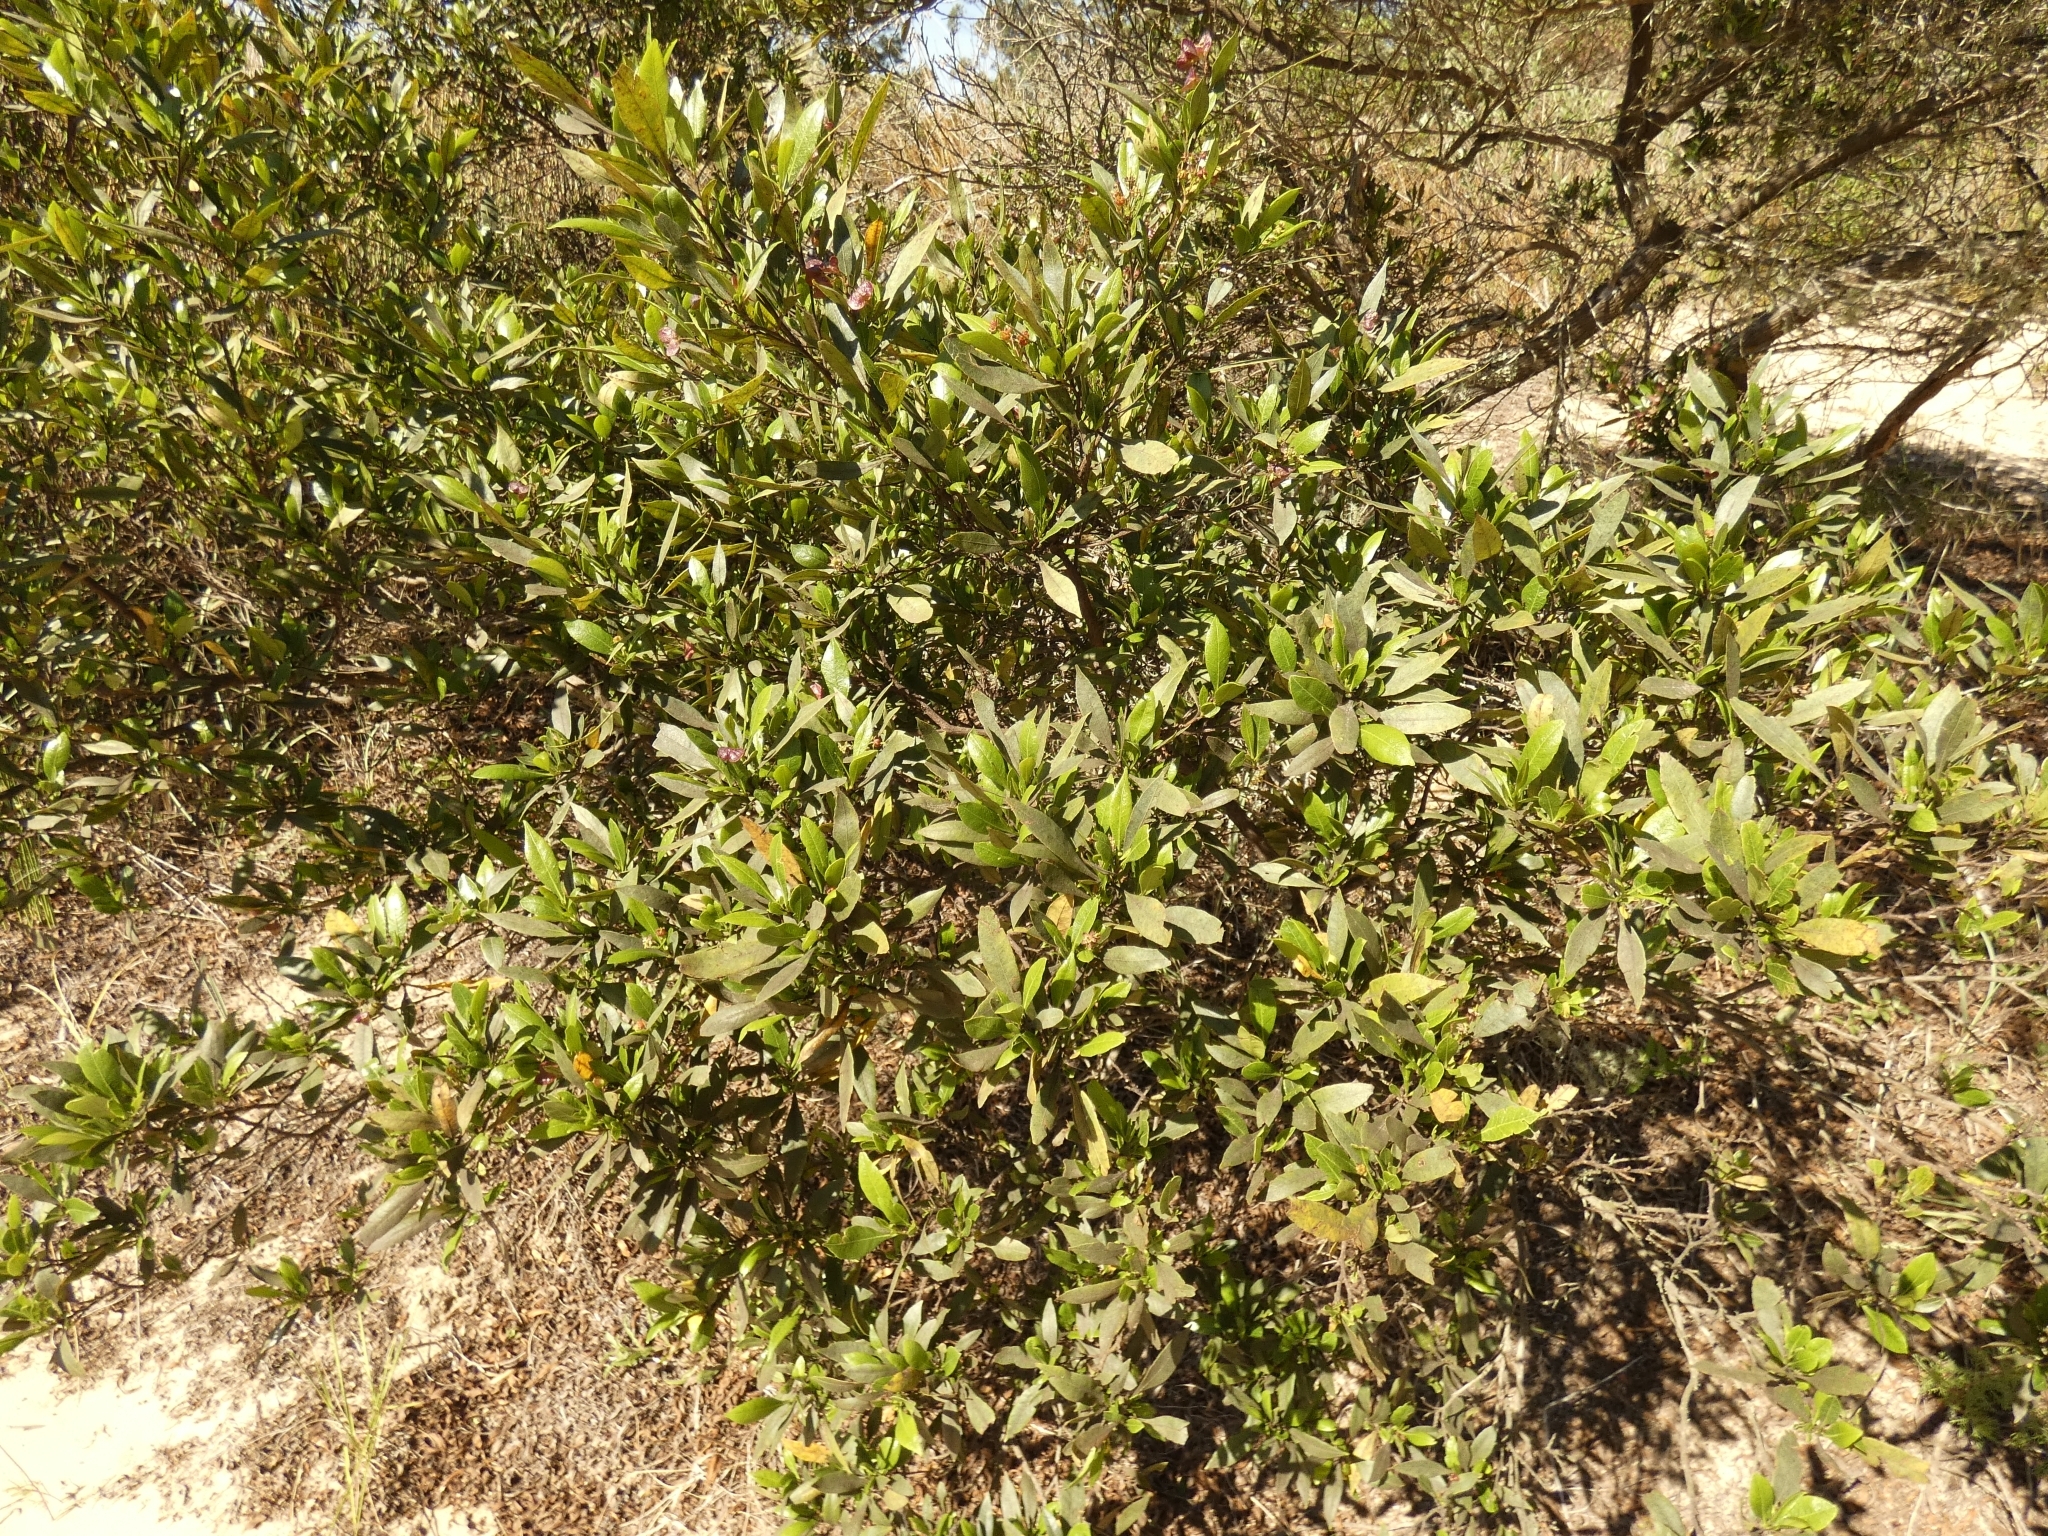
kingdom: Plantae
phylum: Tracheophyta
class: Magnoliopsida
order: Sapindales
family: Sapindaceae
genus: Dodonaea
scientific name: Dodonaea viscosa
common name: Hopbush
